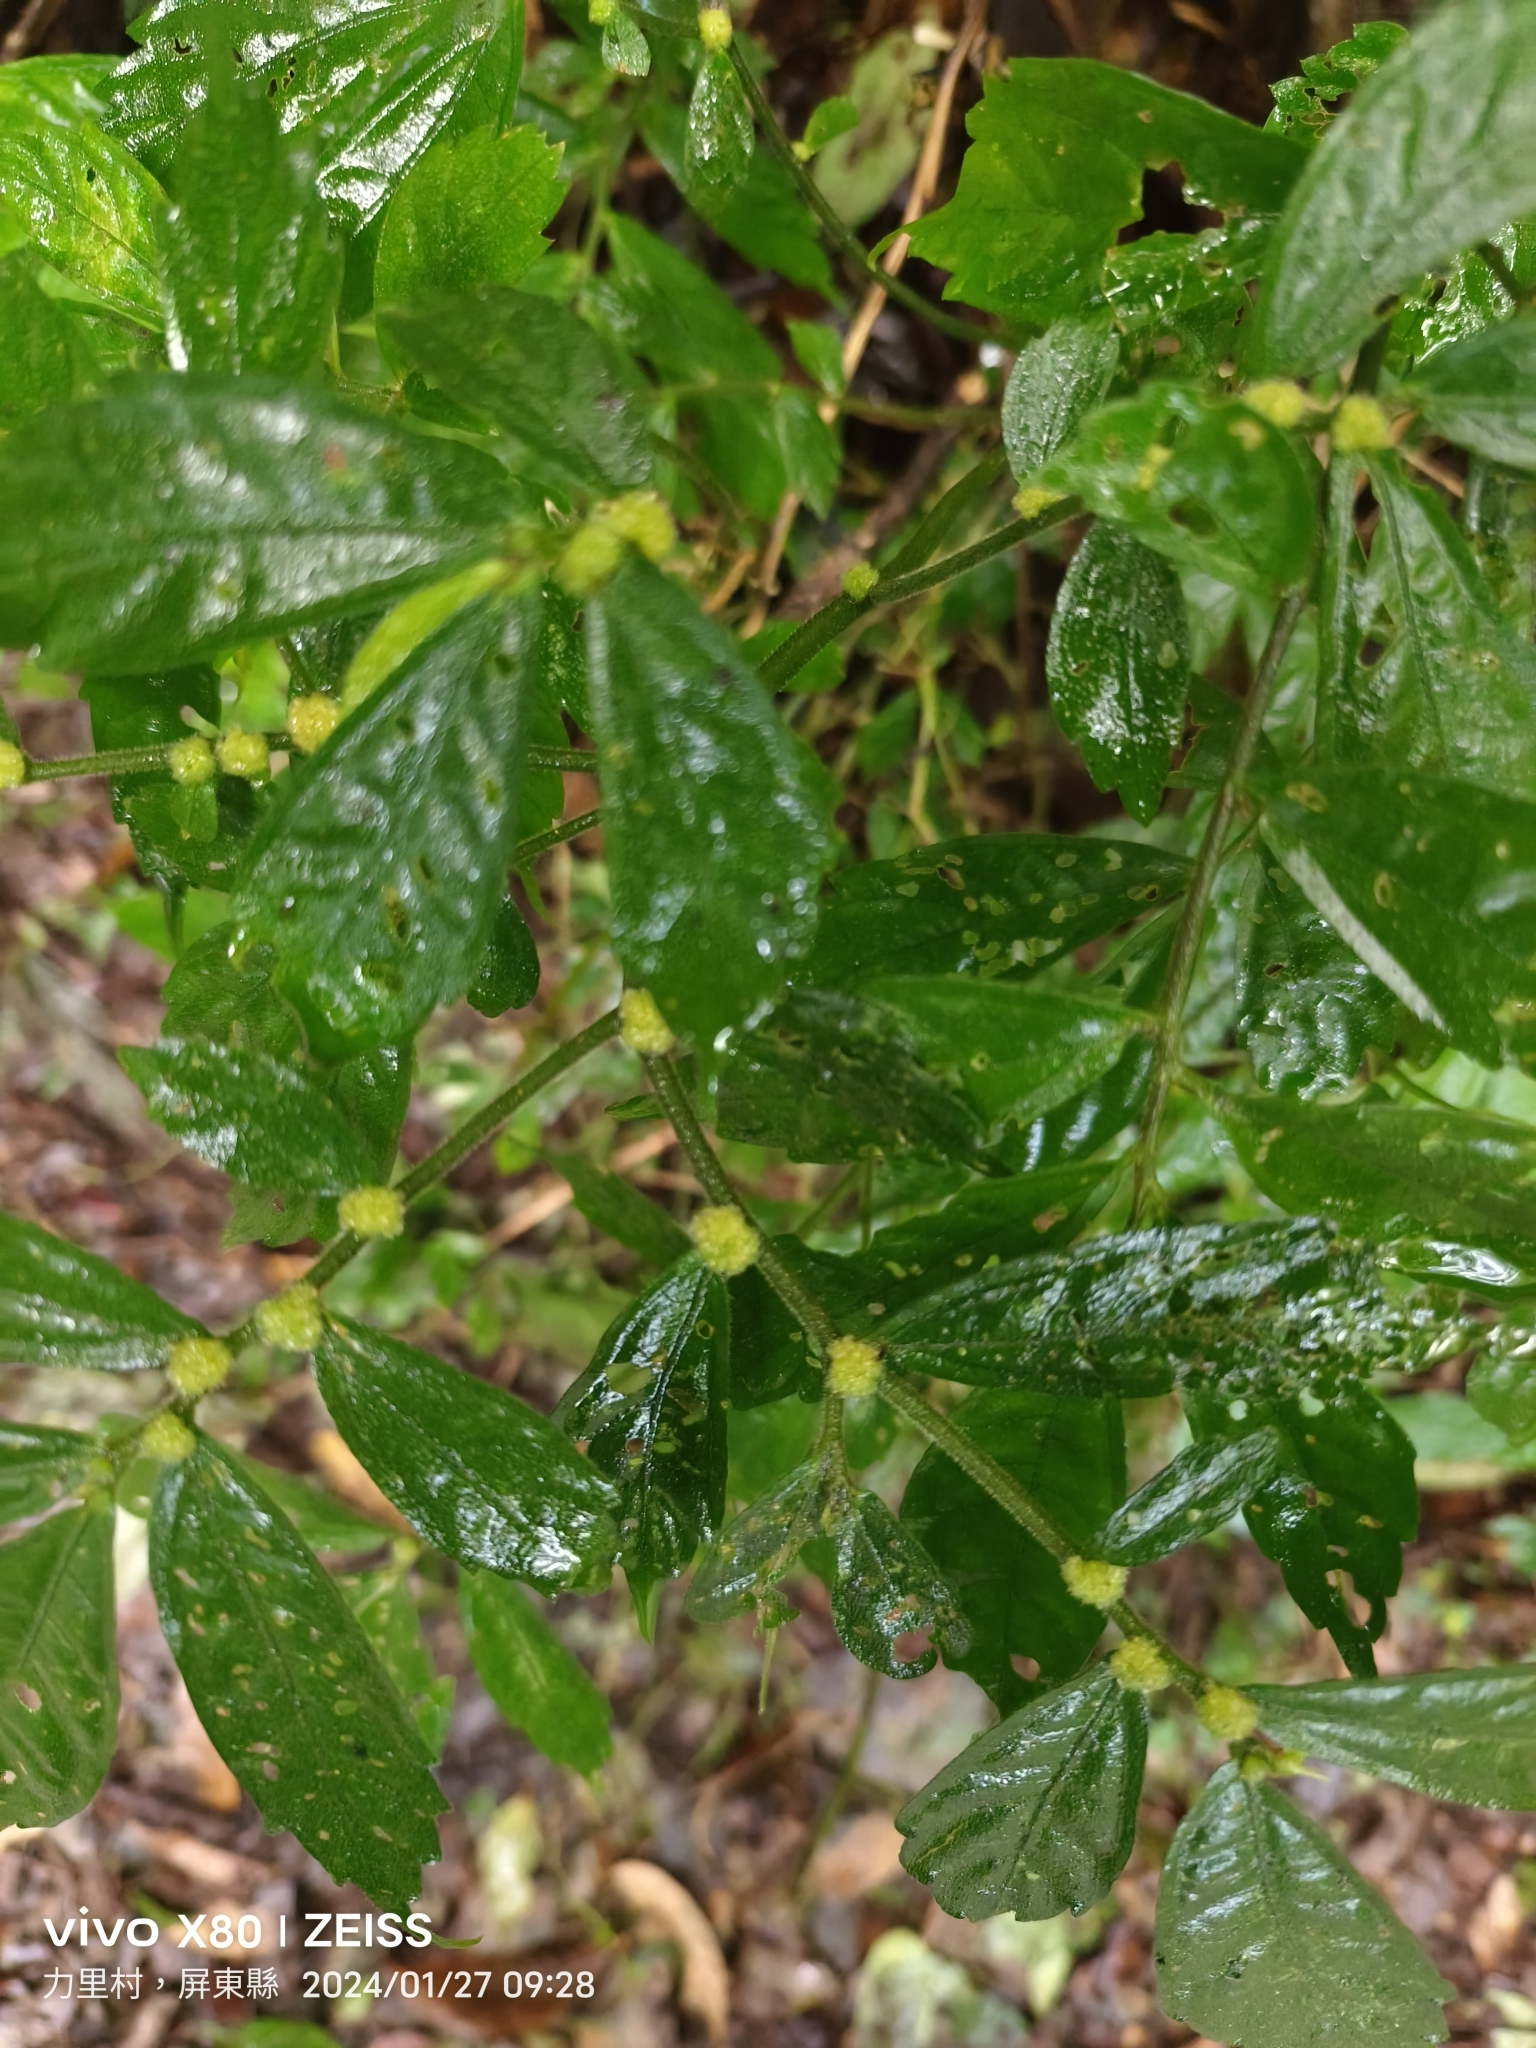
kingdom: Plantae
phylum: Tracheophyta
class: Magnoliopsida
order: Rosales
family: Urticaceae
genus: Elatostema
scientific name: Elatostema lineolatum
